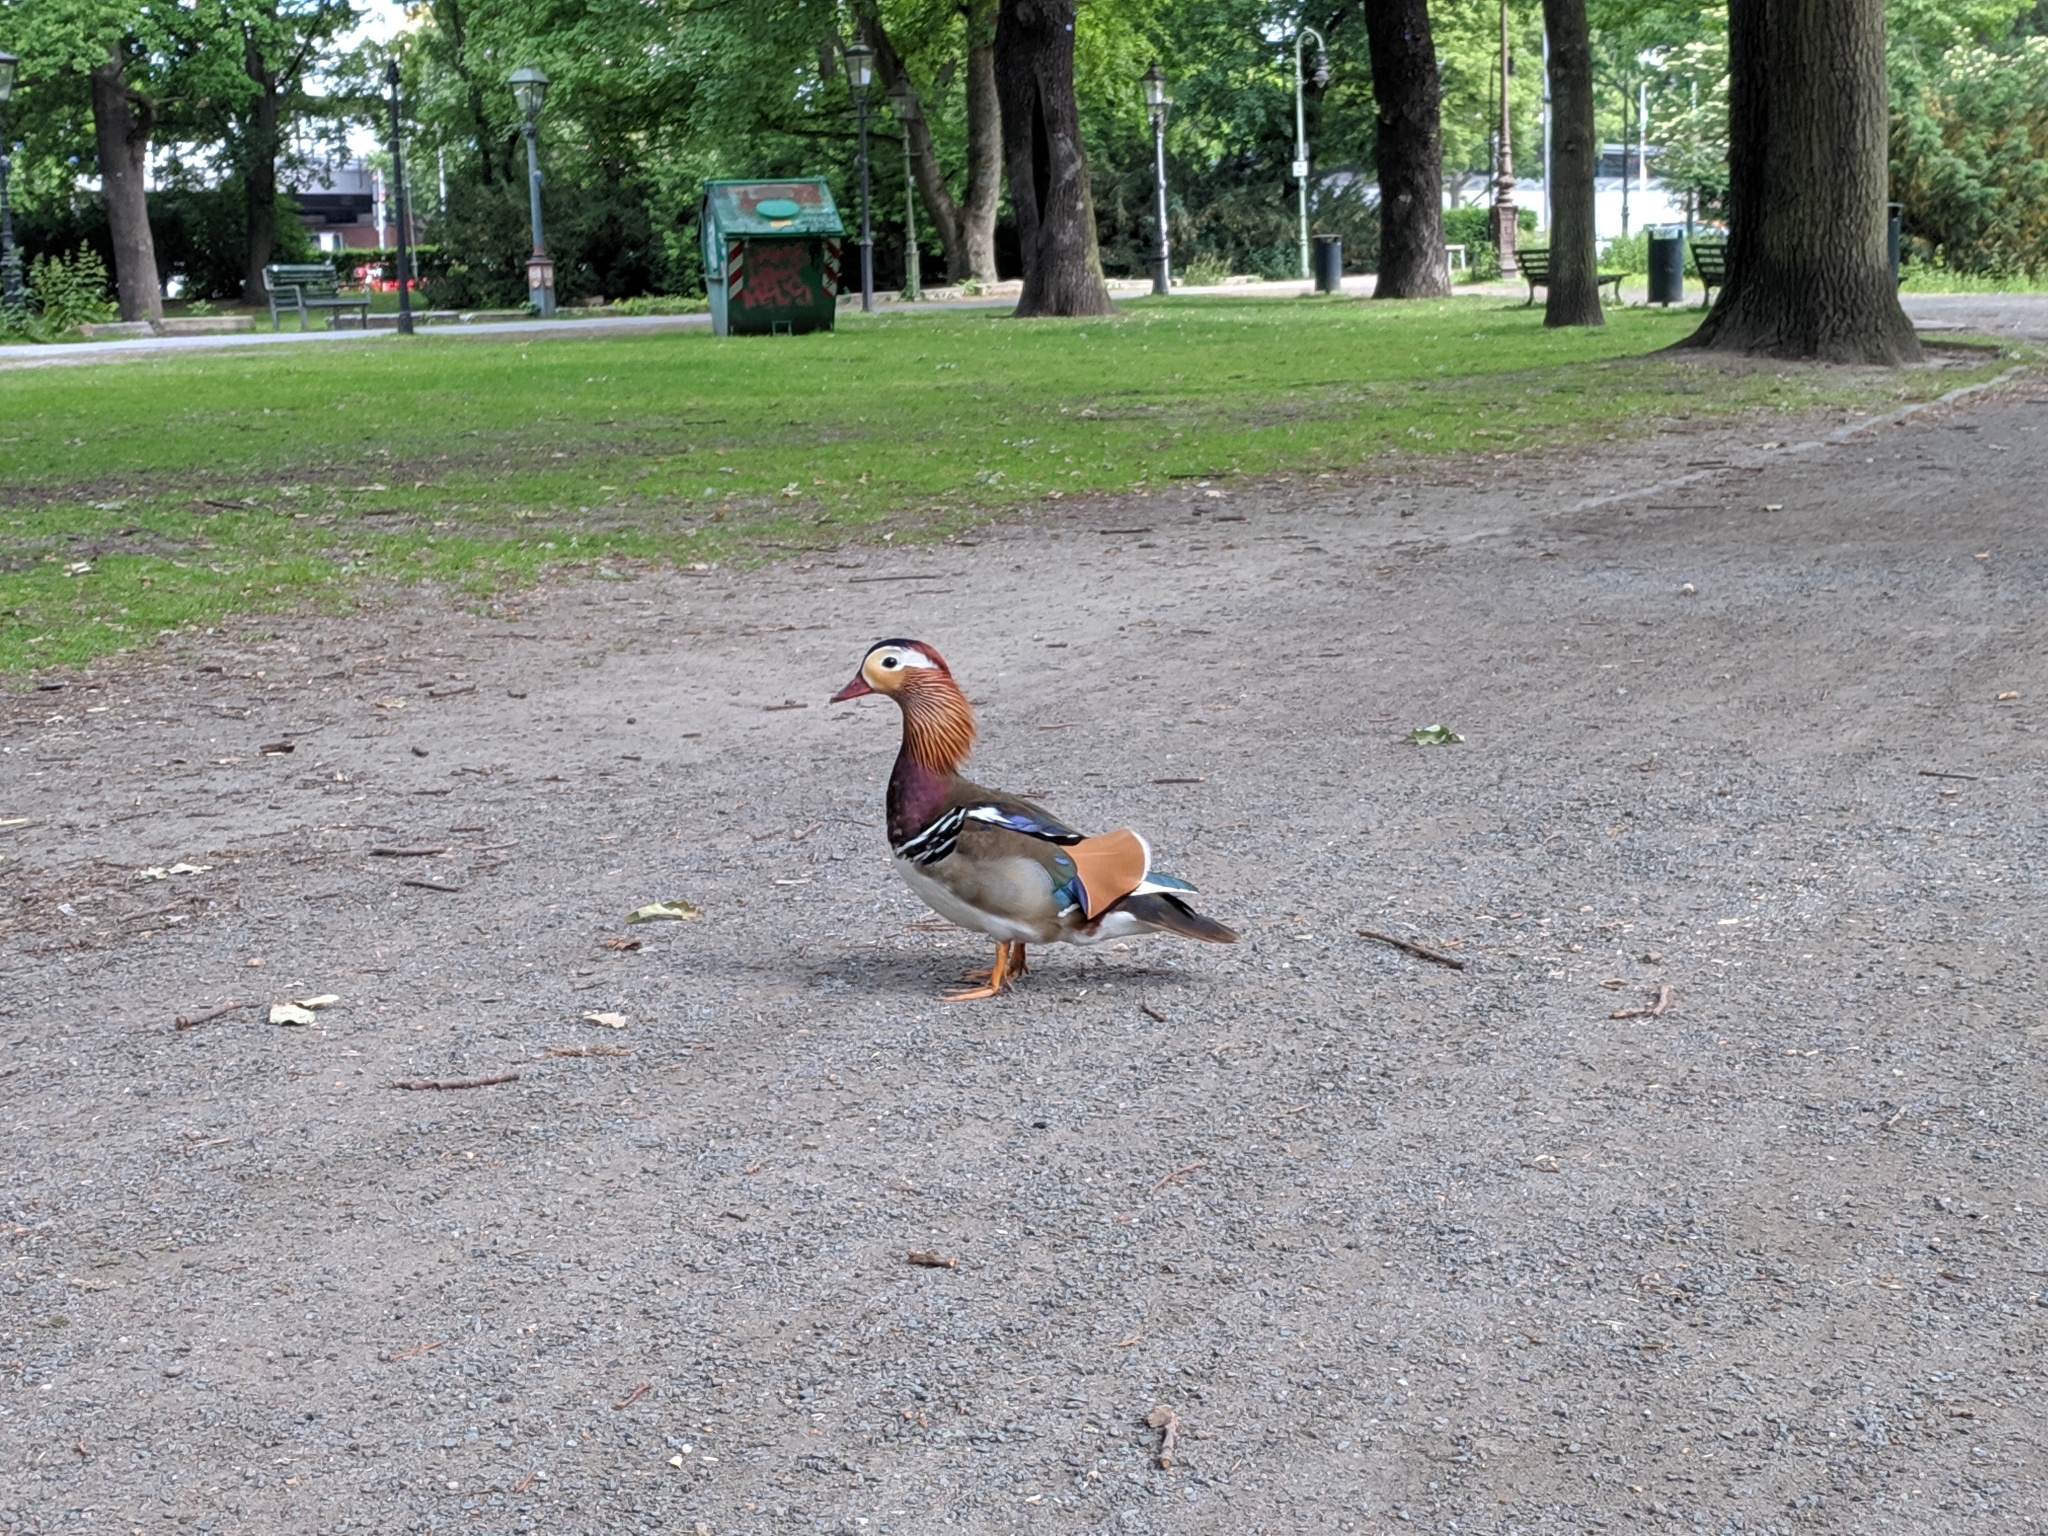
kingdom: Animalia
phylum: Chordata
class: Aves
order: Anseriformes
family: Anatidae
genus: Aix
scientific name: Aix galericulata
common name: Mandarin duck
